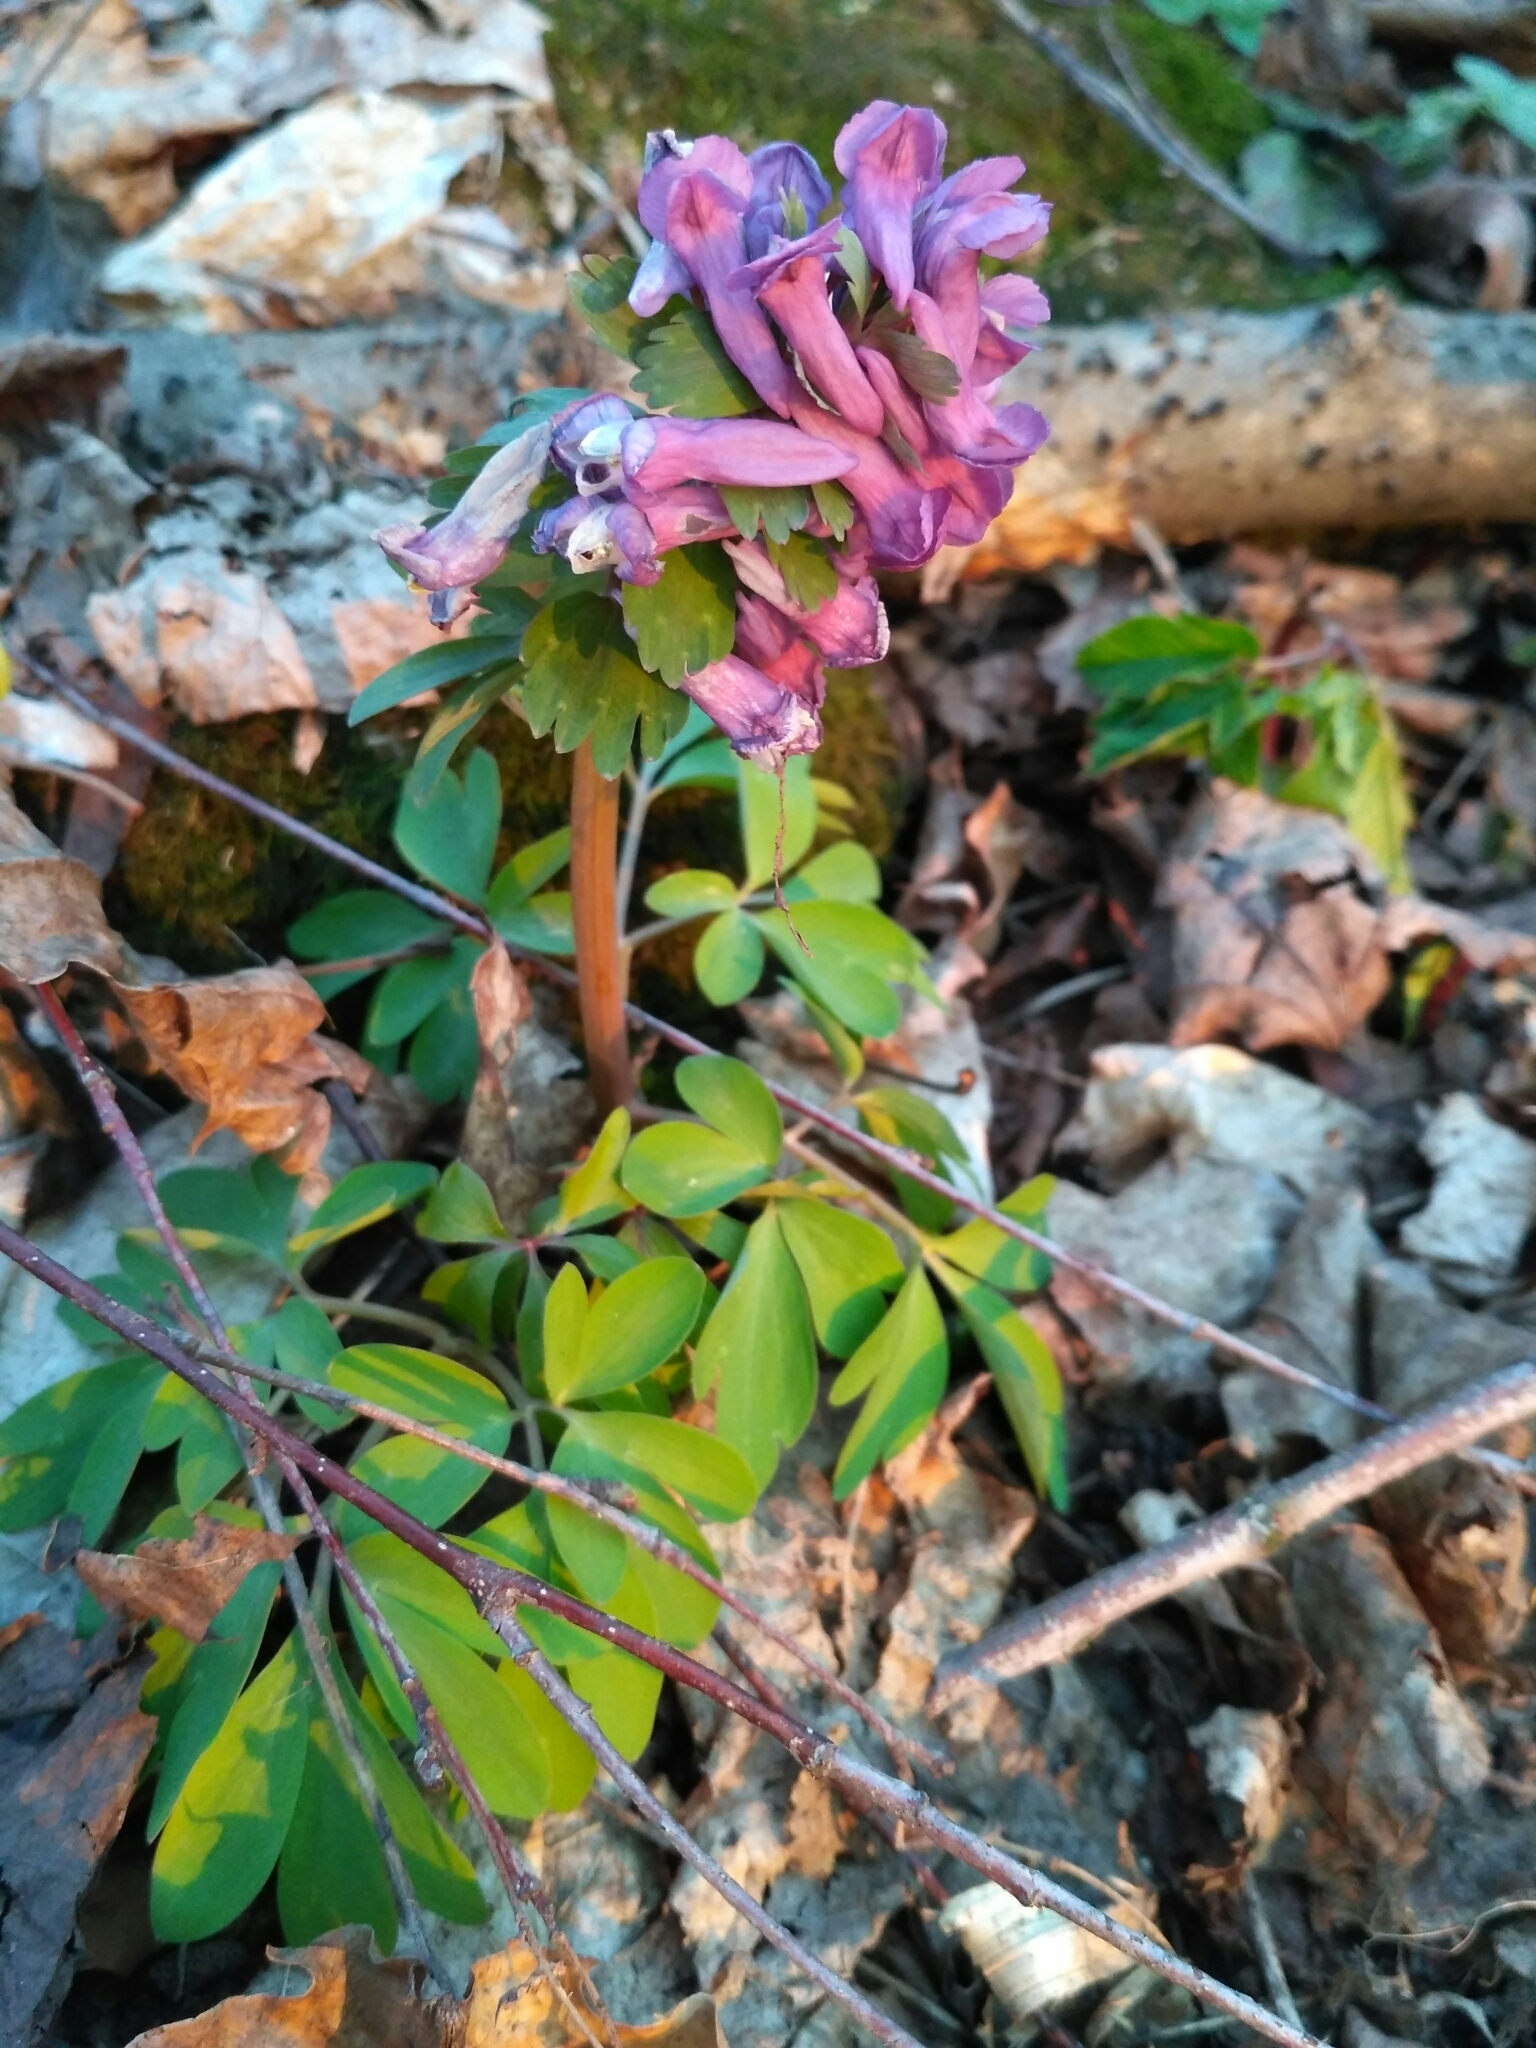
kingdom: Plantae
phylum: Tracheophyta
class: Magnoliopsida
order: Ranunculales
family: Papaveraceae
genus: Corydalis
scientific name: Corydalis solida
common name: Bird-in-a-bush
